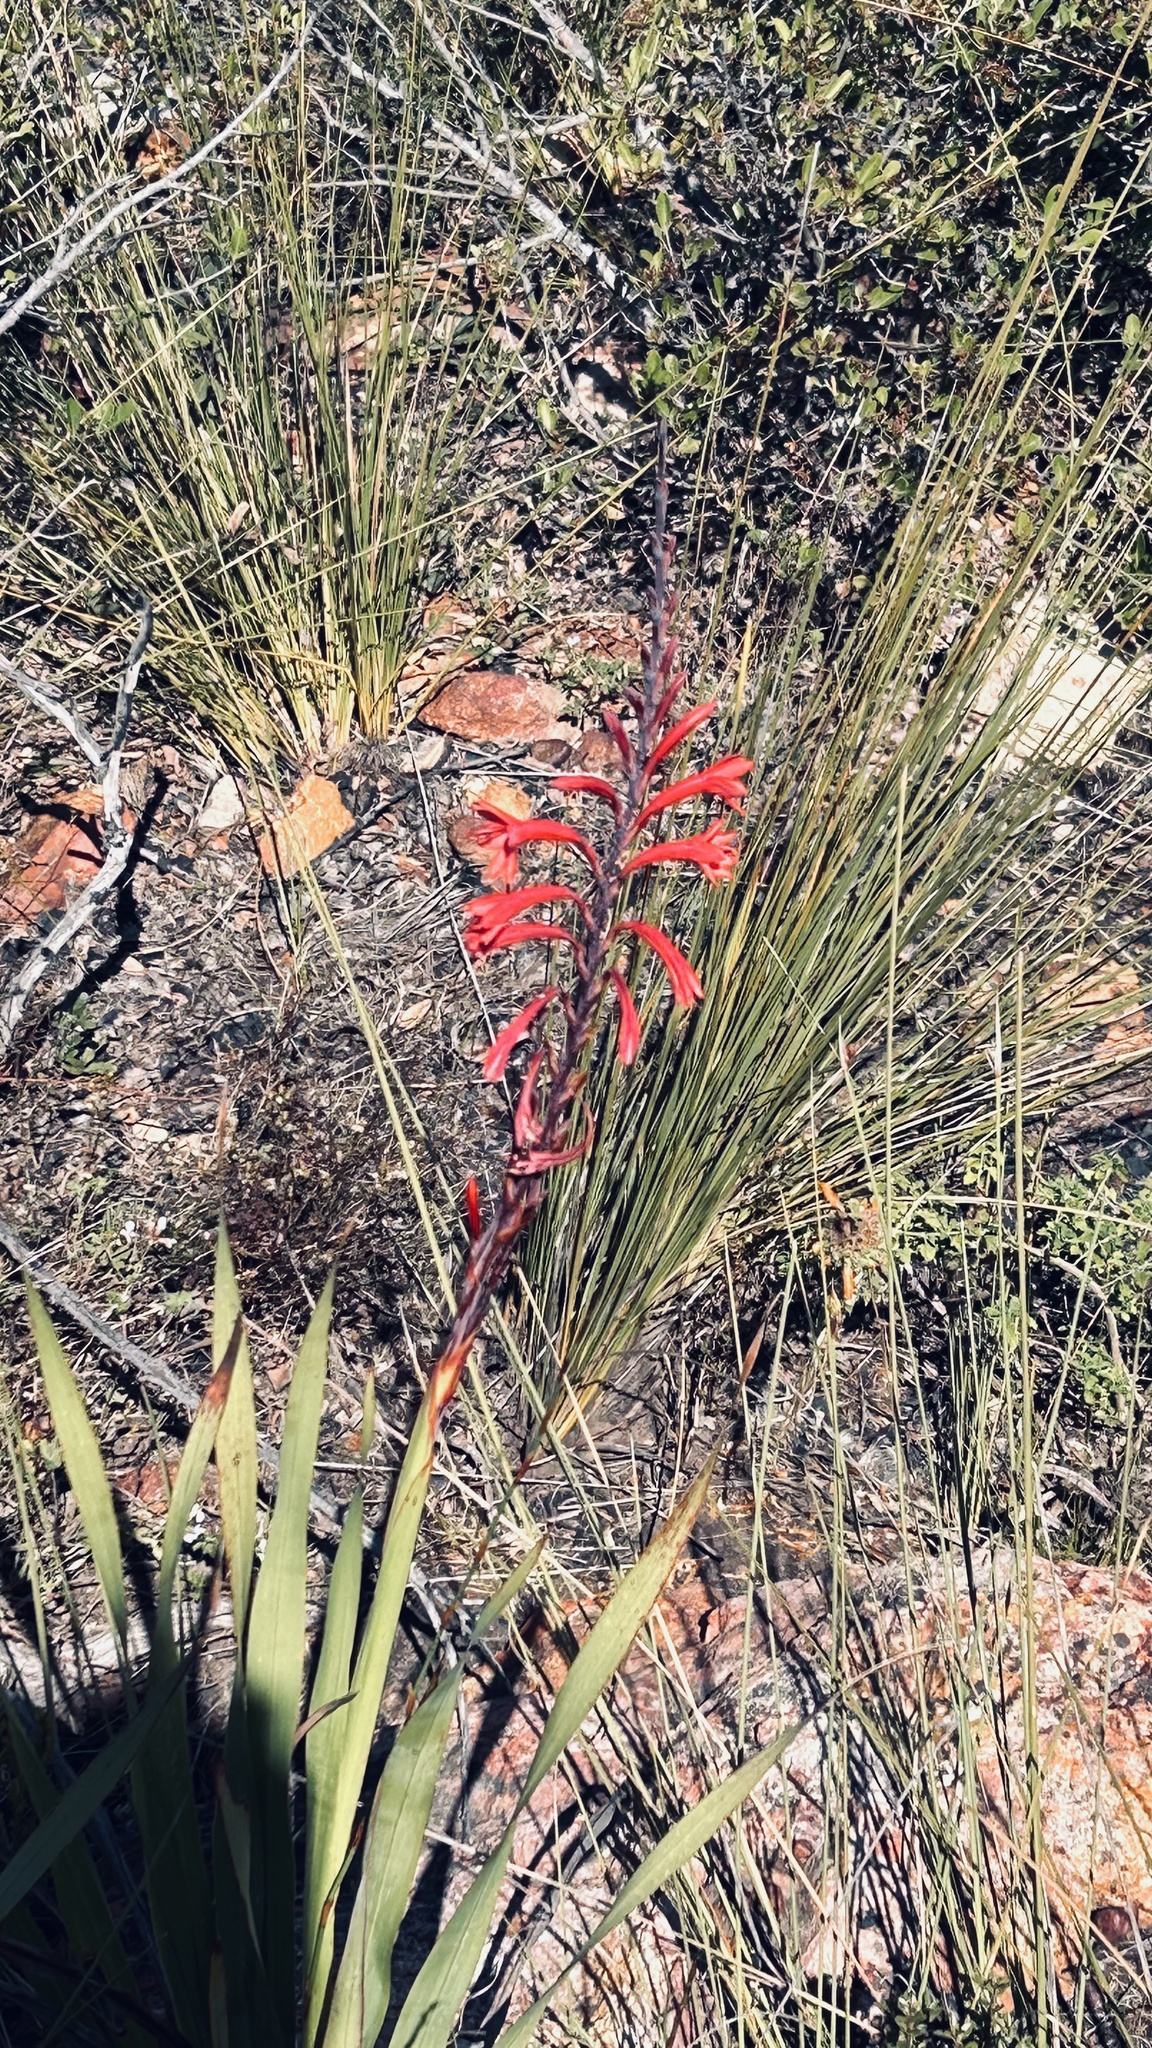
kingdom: Plantae
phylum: Tracheophyta
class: Liliopsida
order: Asparagales
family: Iridaceae
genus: Watsonia
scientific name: Watsonia fourcadei
